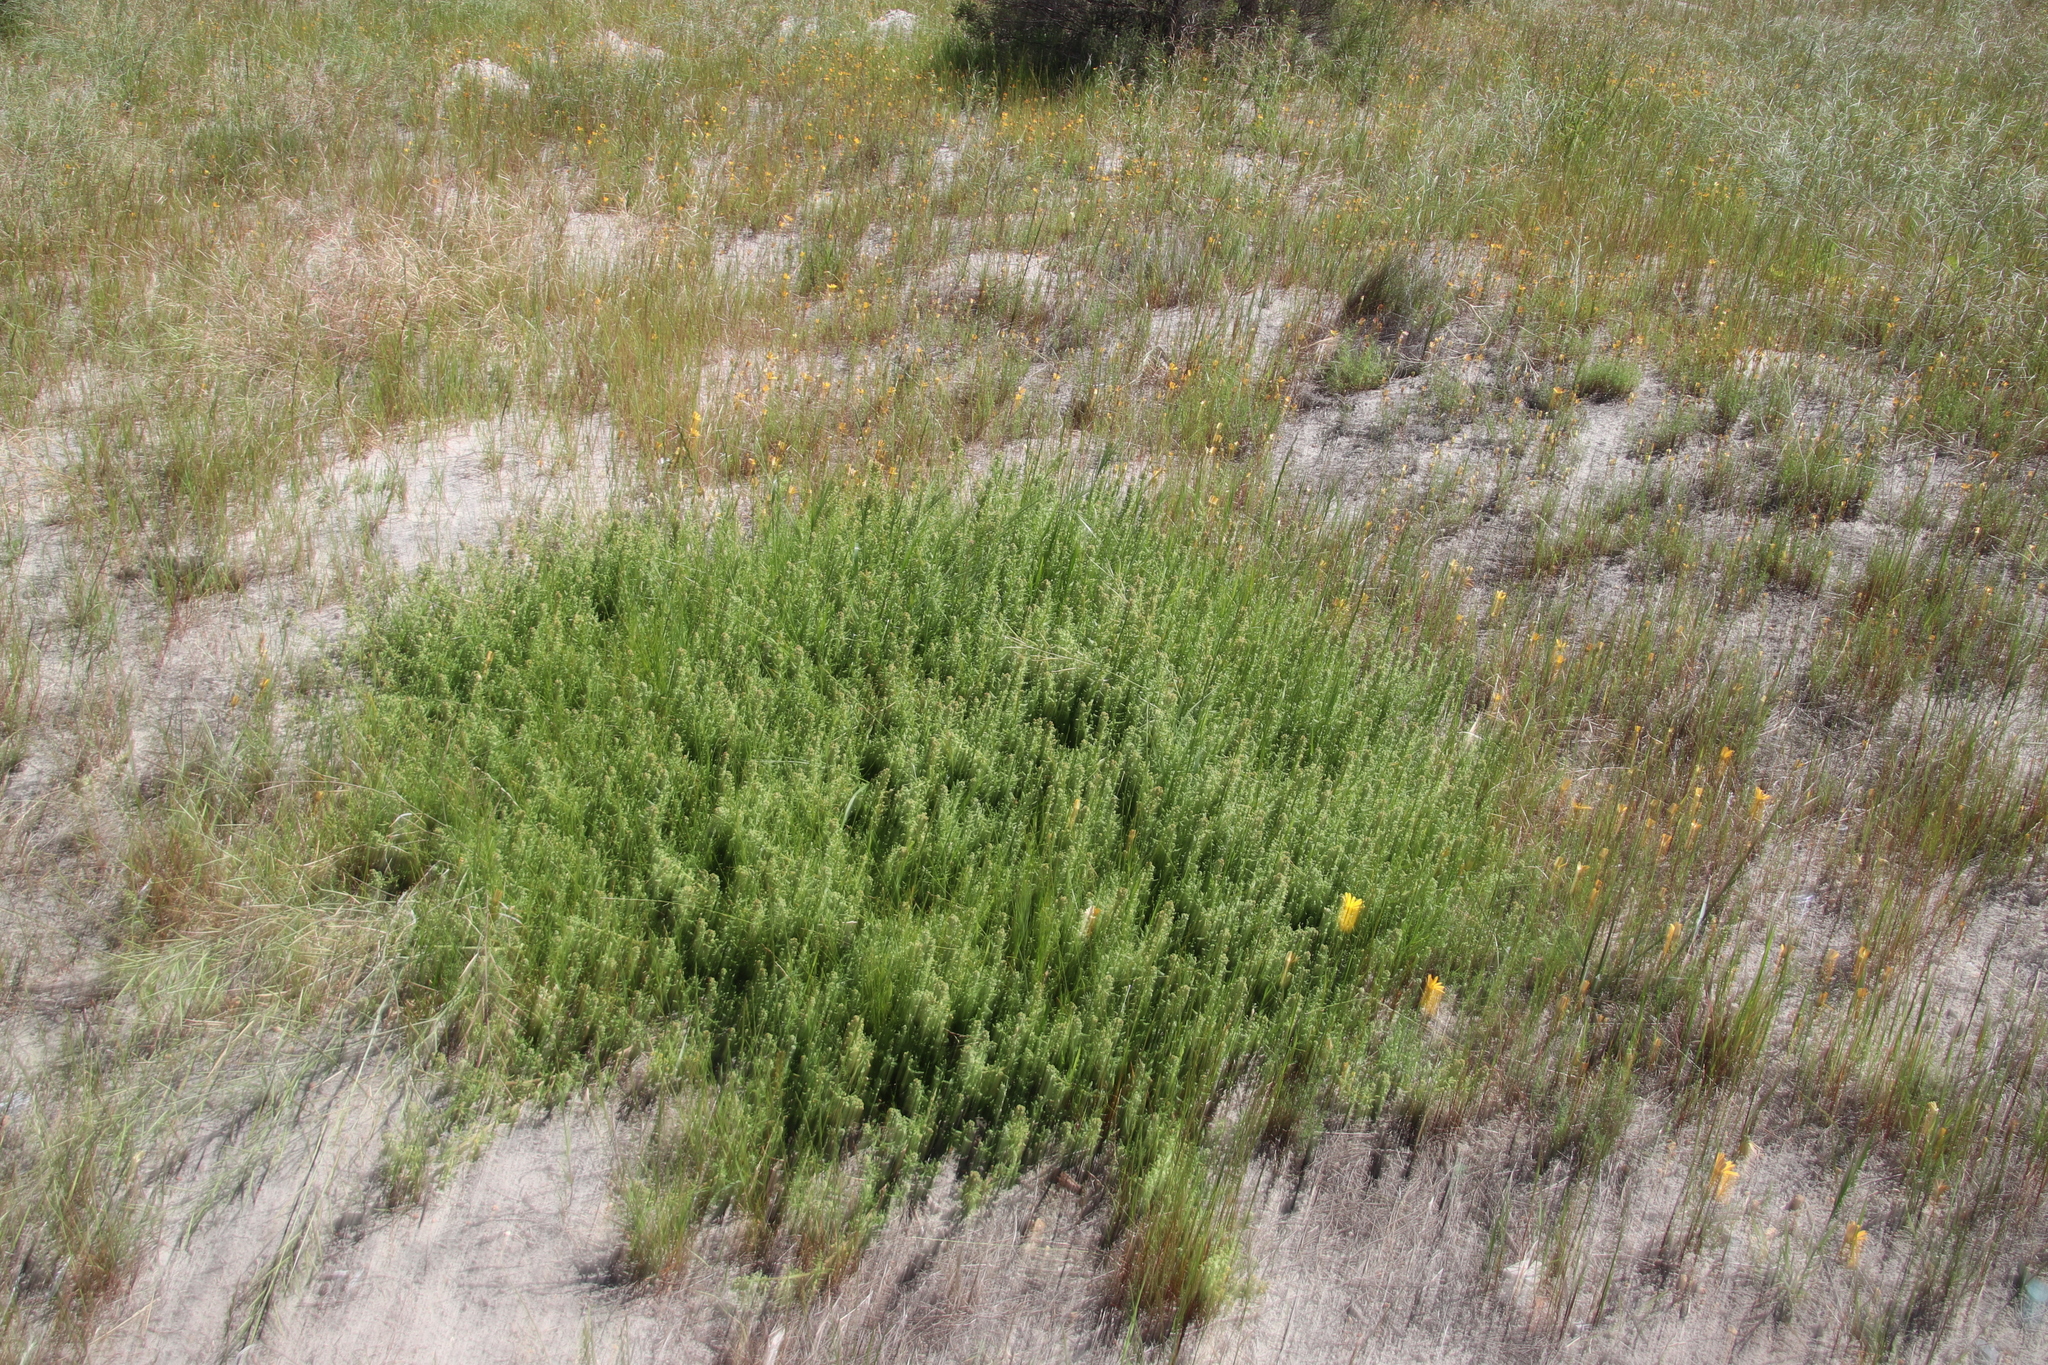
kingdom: Plantae
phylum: Tracheophyta
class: Magnoliopsida
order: Caryophyllales
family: Aizoaceae
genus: Tetragonia
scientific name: Tetragonia fruticosa
